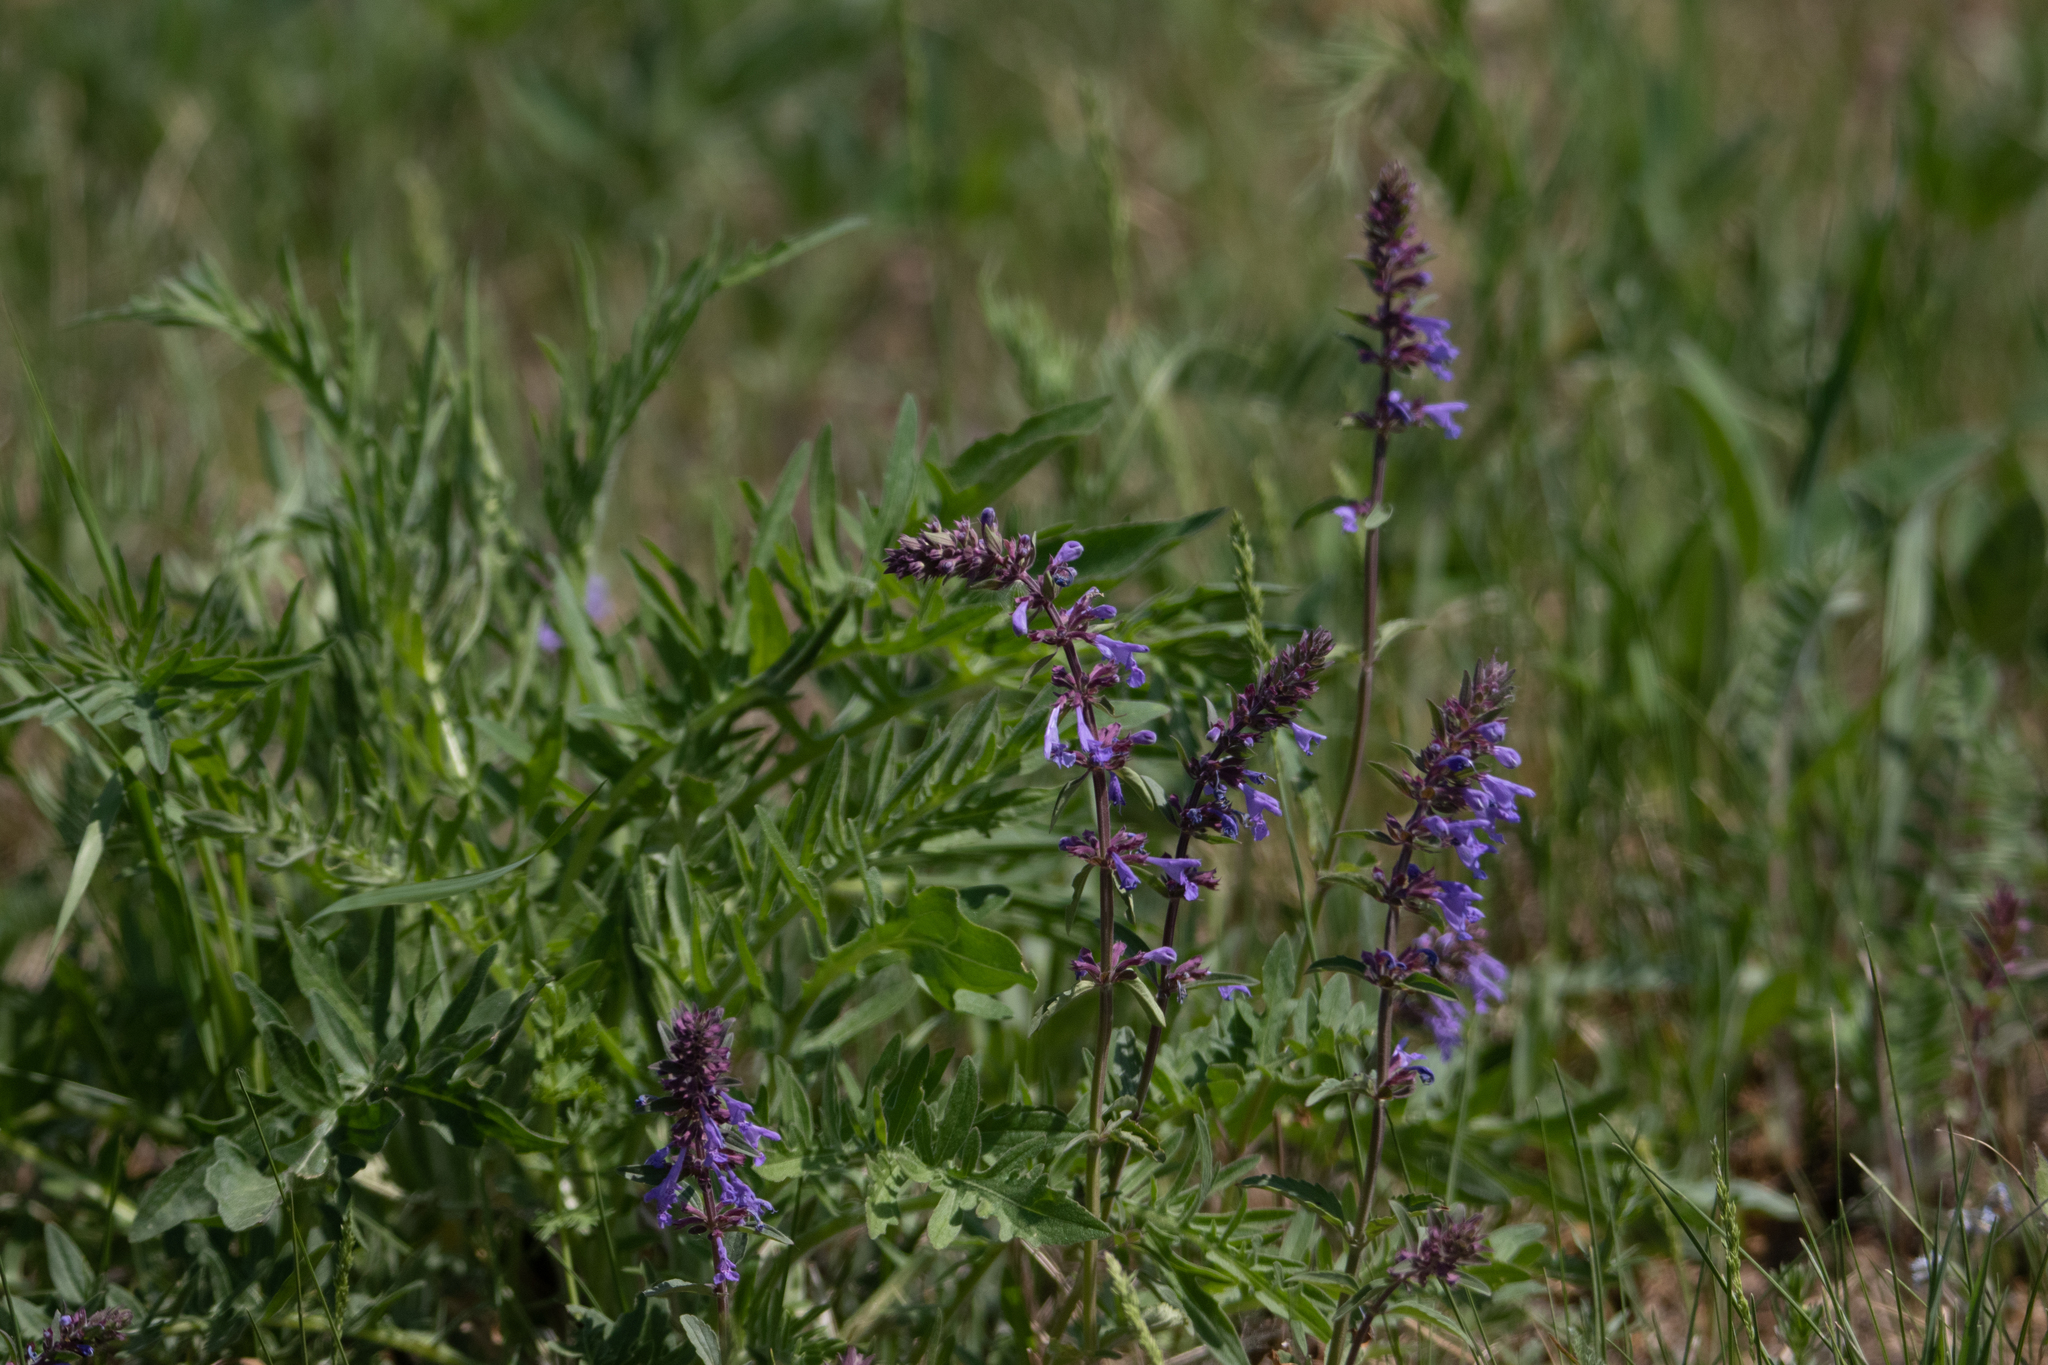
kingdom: Plantae
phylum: Tracheophyta
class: Magnoliopsida
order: Lamiales
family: Lamiaceae
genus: Dracocephalum
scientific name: Dracocephalum nutans
